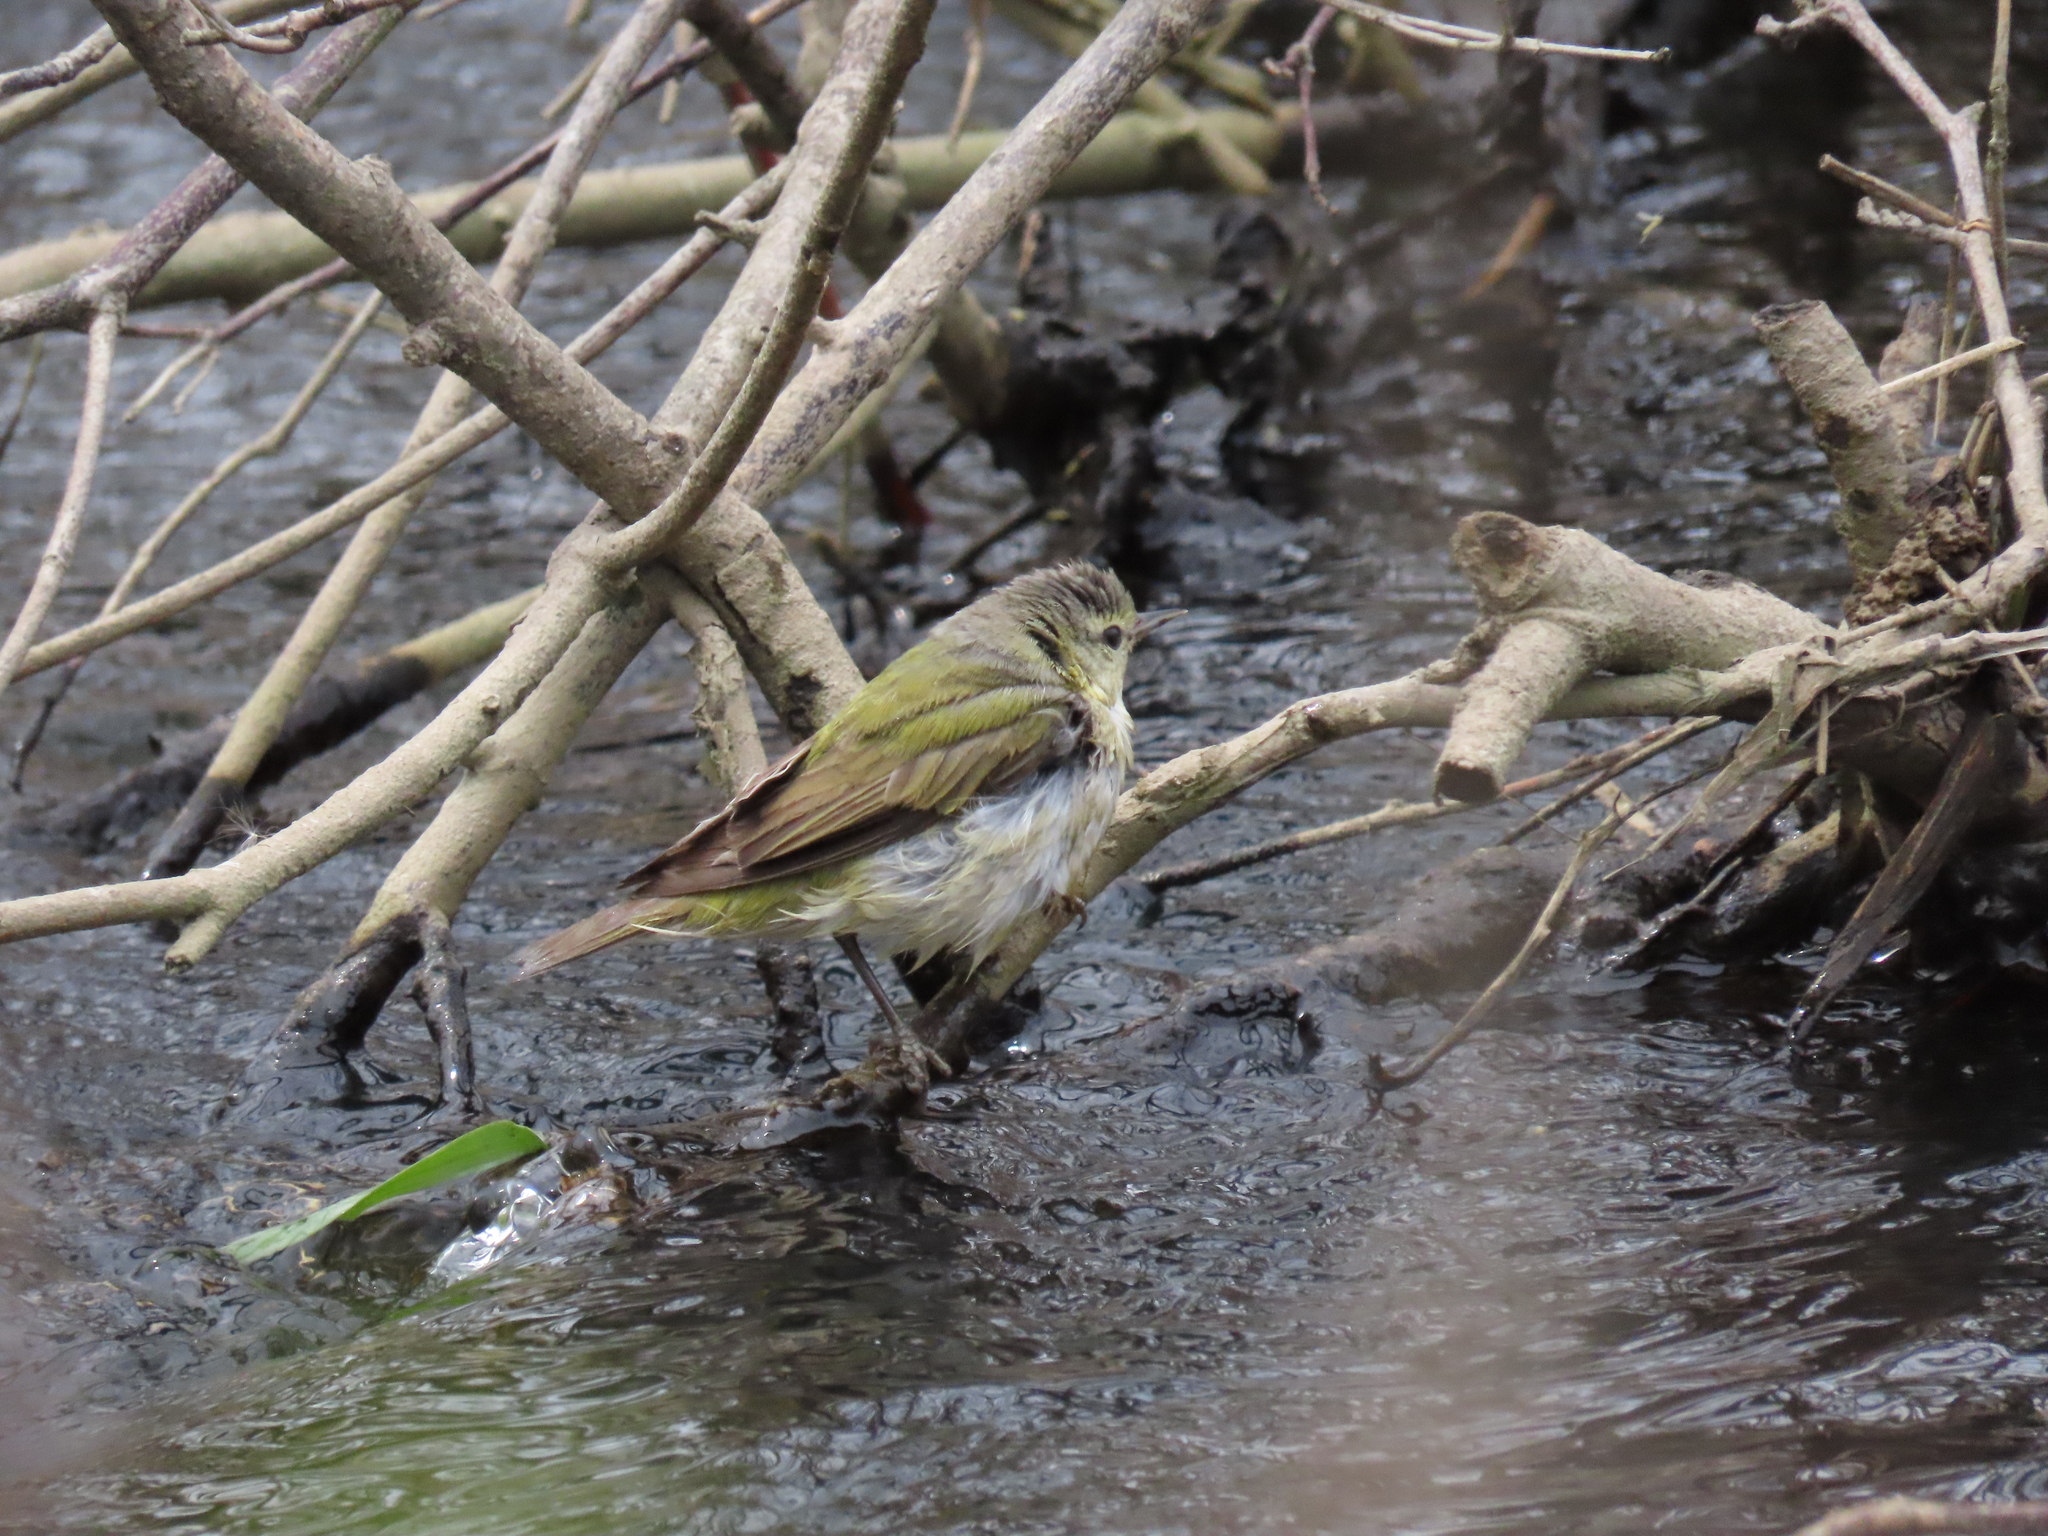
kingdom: Animalia
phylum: Chordata
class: Aves
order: Passeriformes
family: Parulidae
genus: Leiothlypis
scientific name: Leiothlypis peregrina
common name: Tennessee warbler
